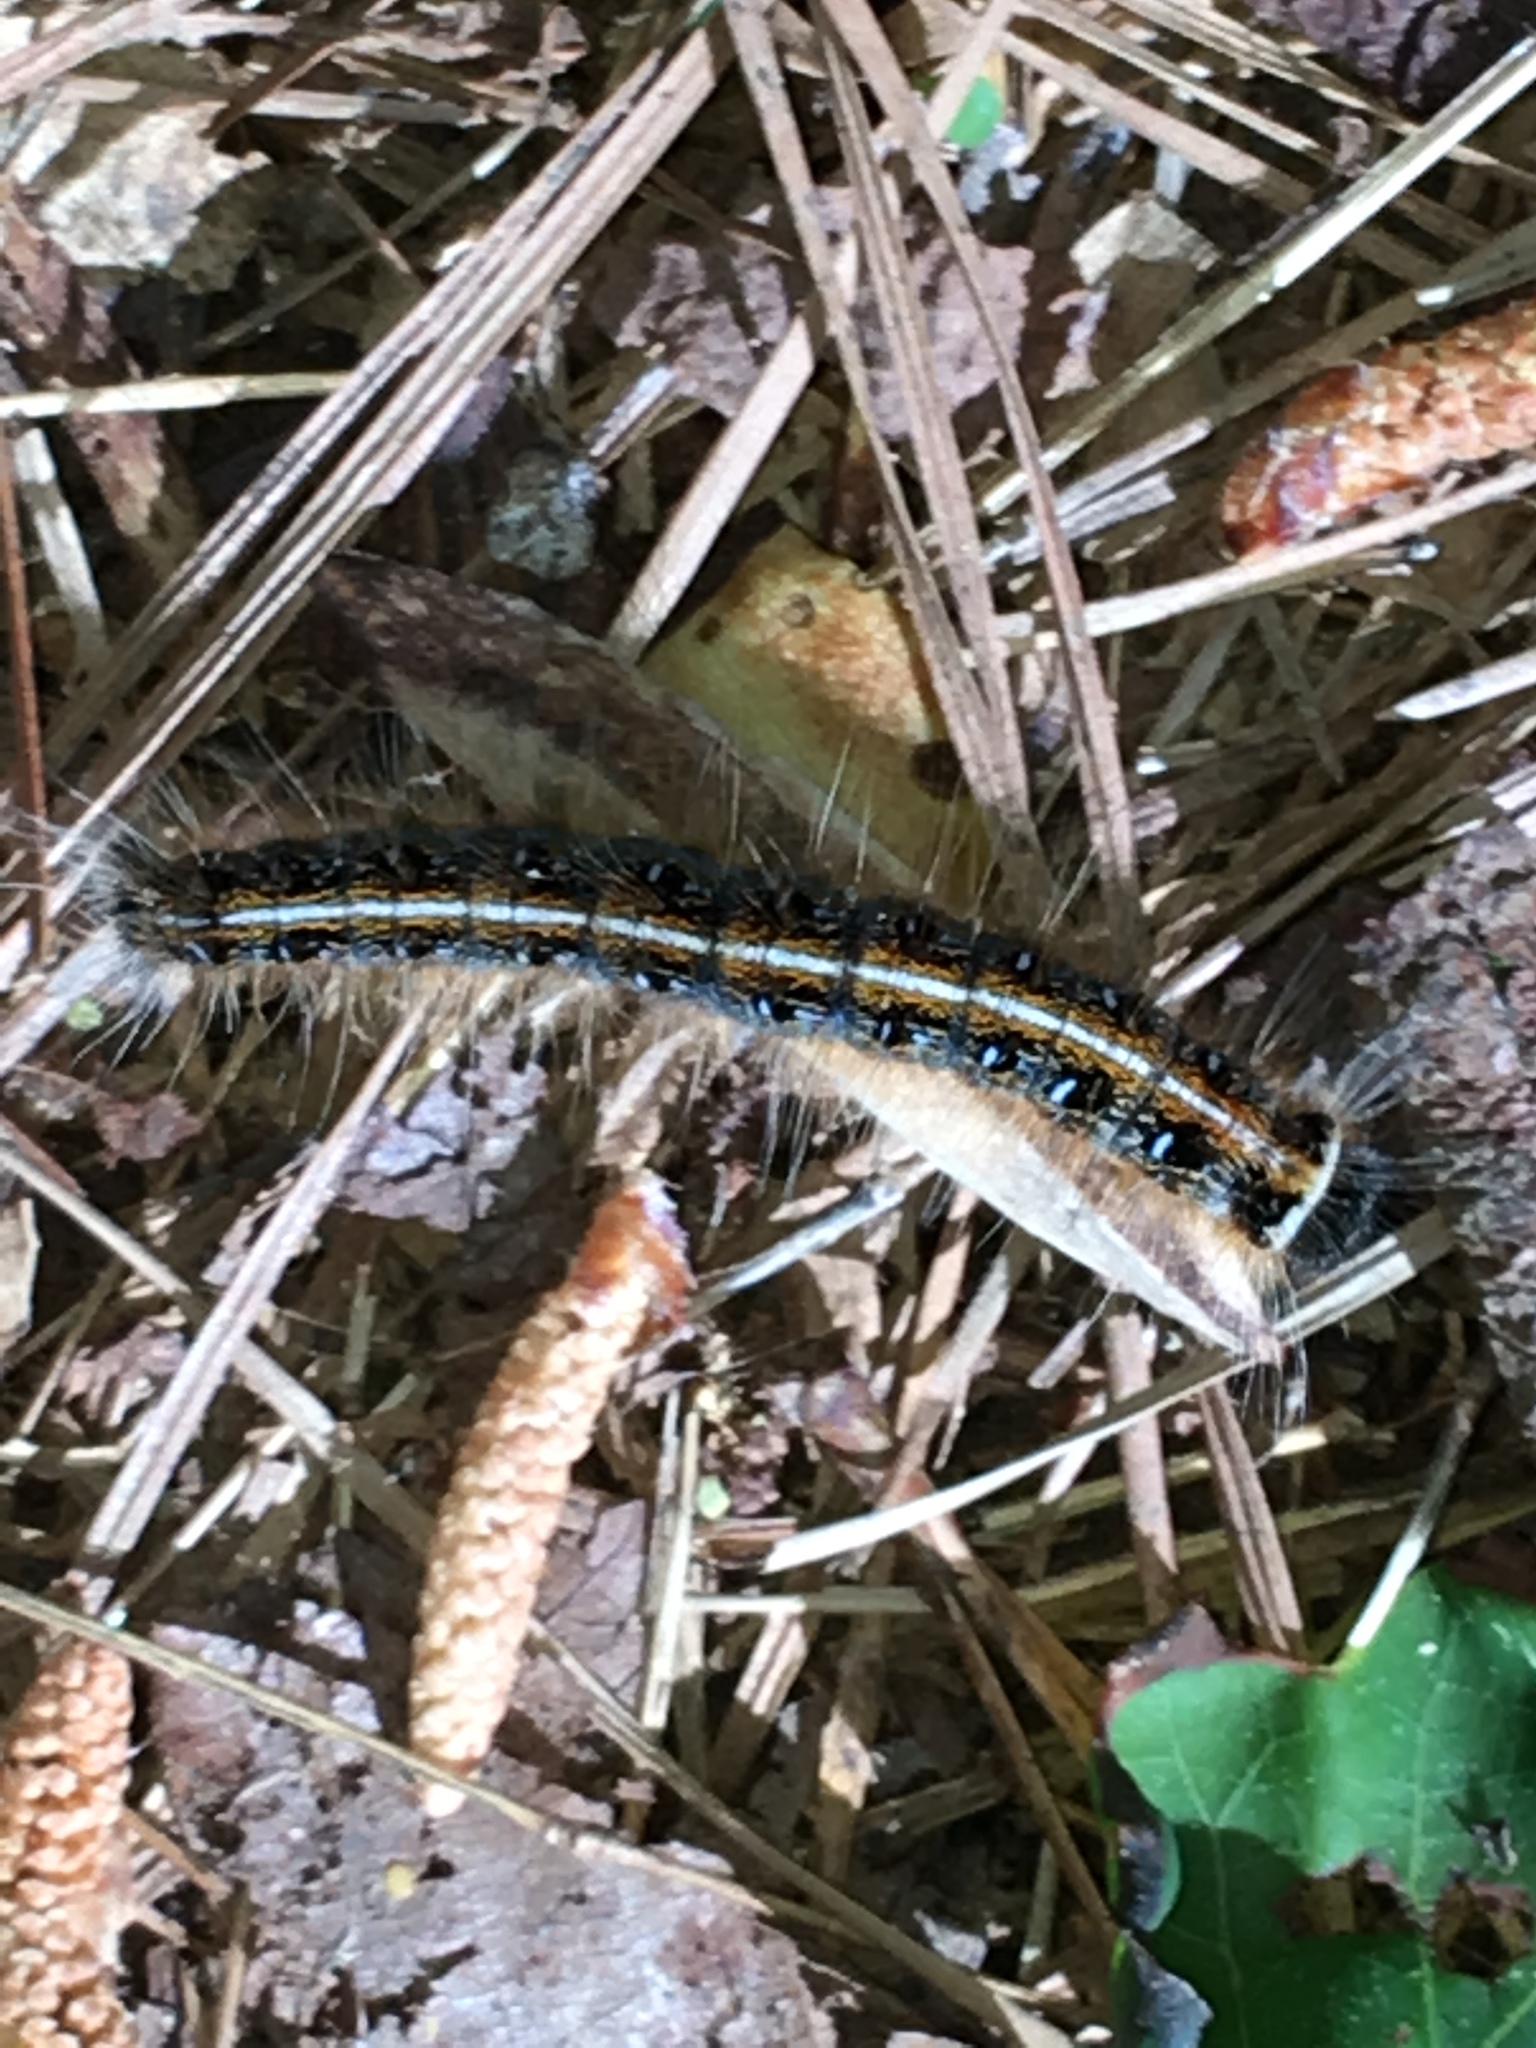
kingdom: Animalia
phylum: Arthropoda
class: Insecta
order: Lepidoptera
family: Lasiocampidae
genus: Malacosoma
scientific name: Malacosoma americana
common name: Eastern tent caterpillar moth
